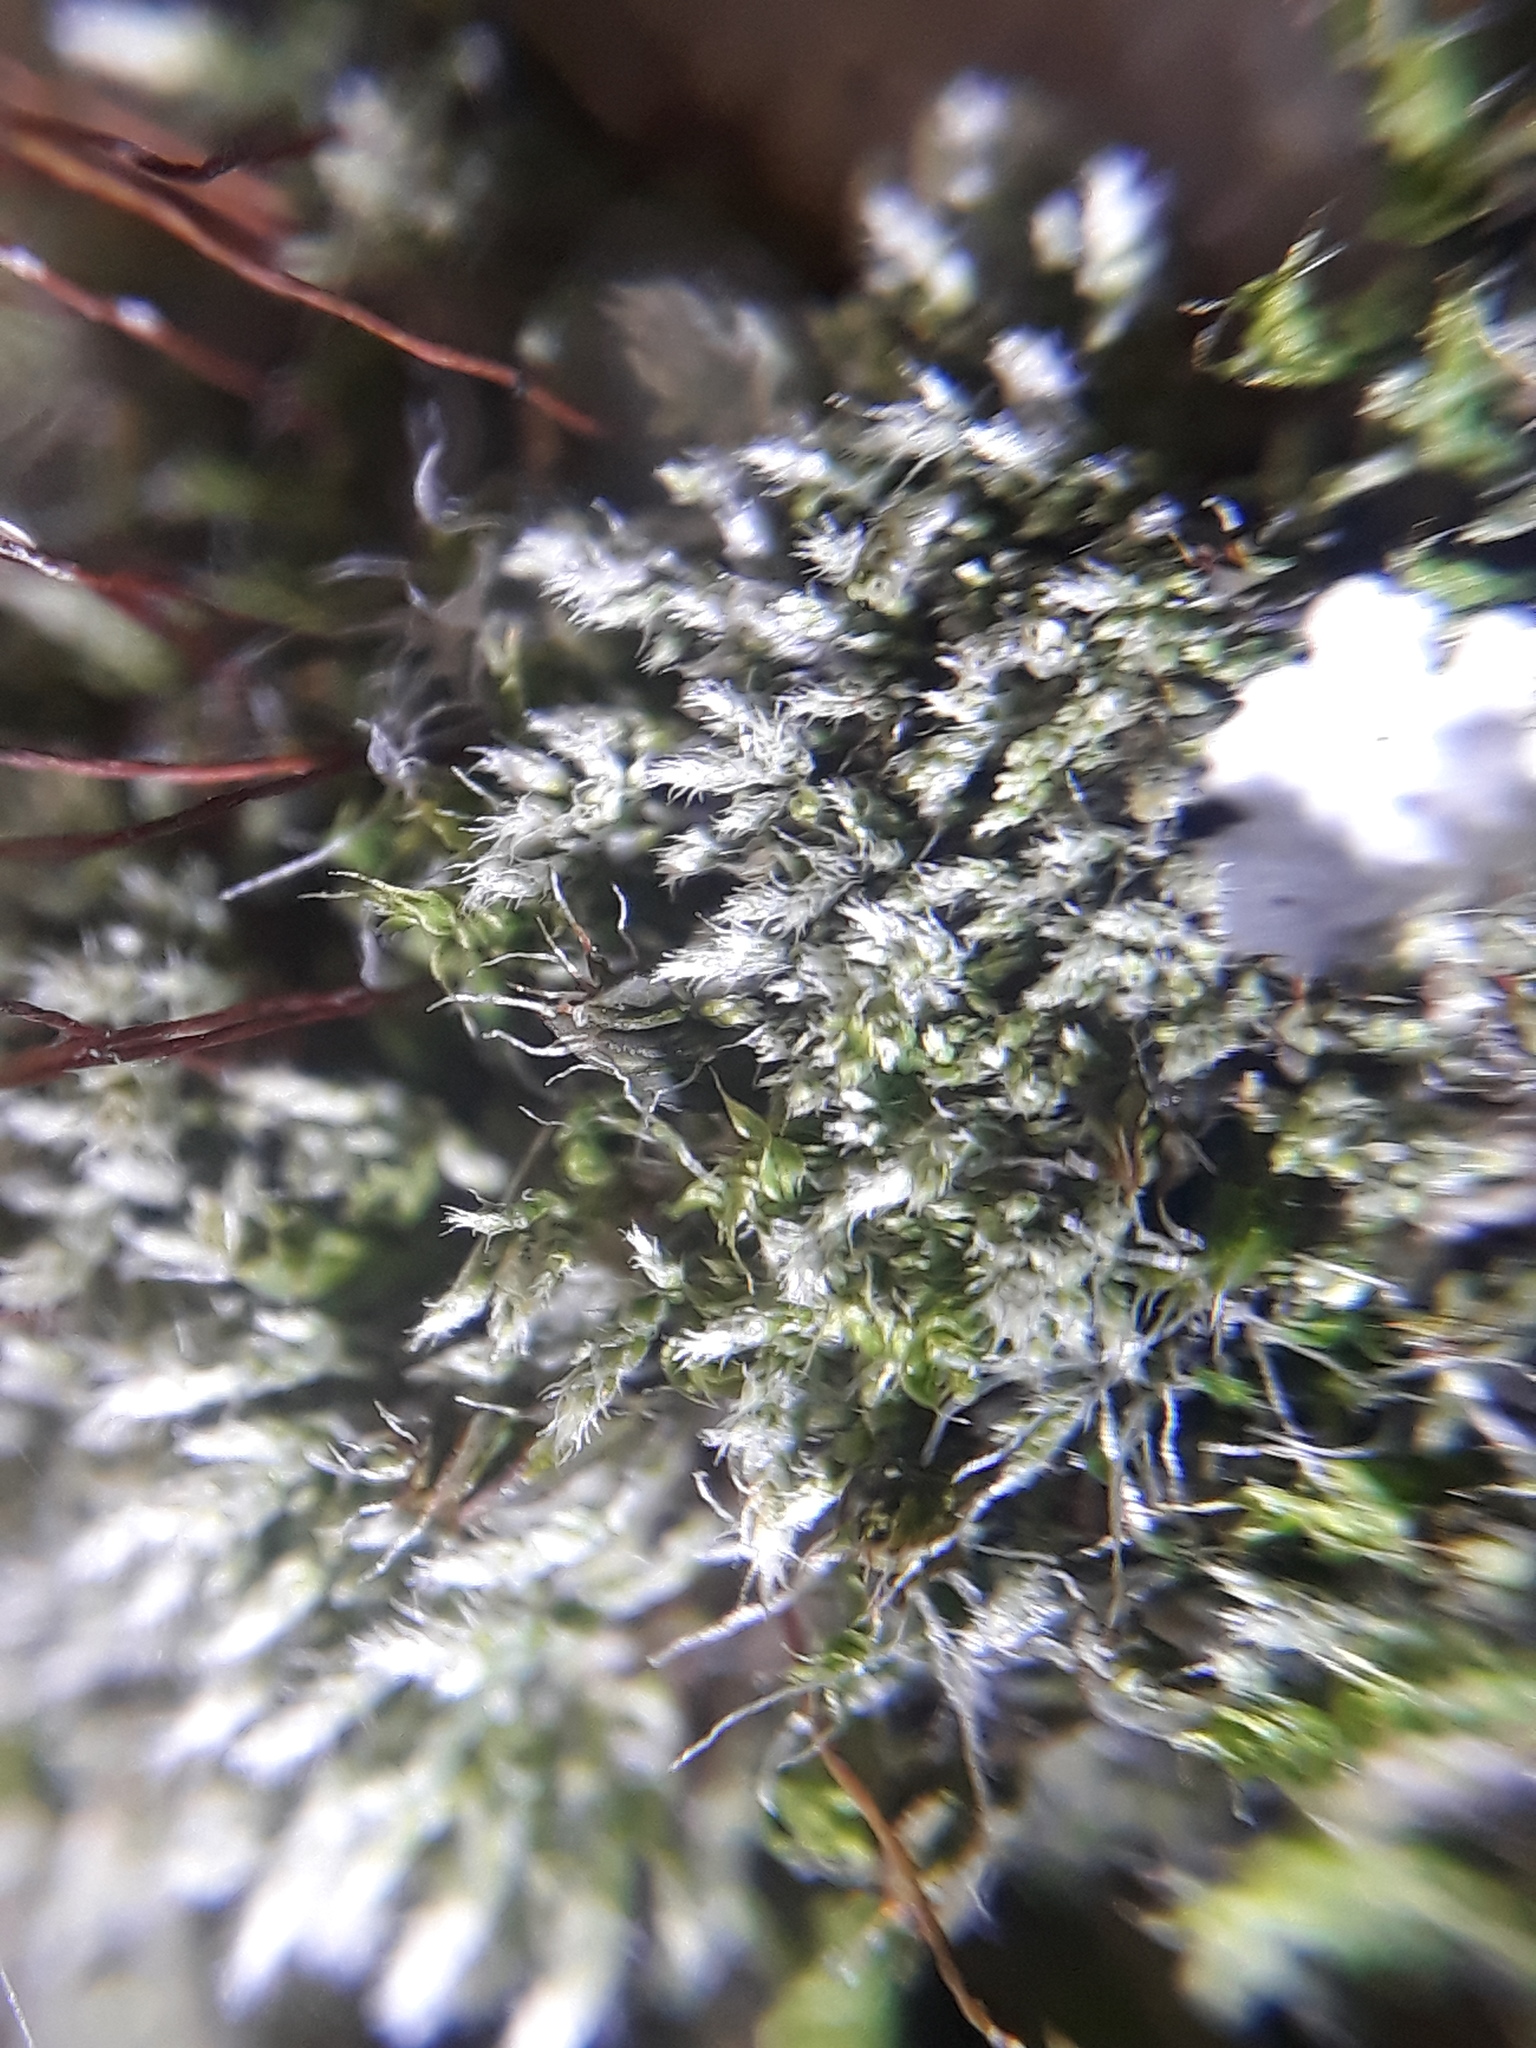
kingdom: Plantae
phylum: Bryophyta
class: Bryopsida
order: Bryales
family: Bryaceae
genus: Bryum
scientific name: Bryum argenteum
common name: Silver-moss
